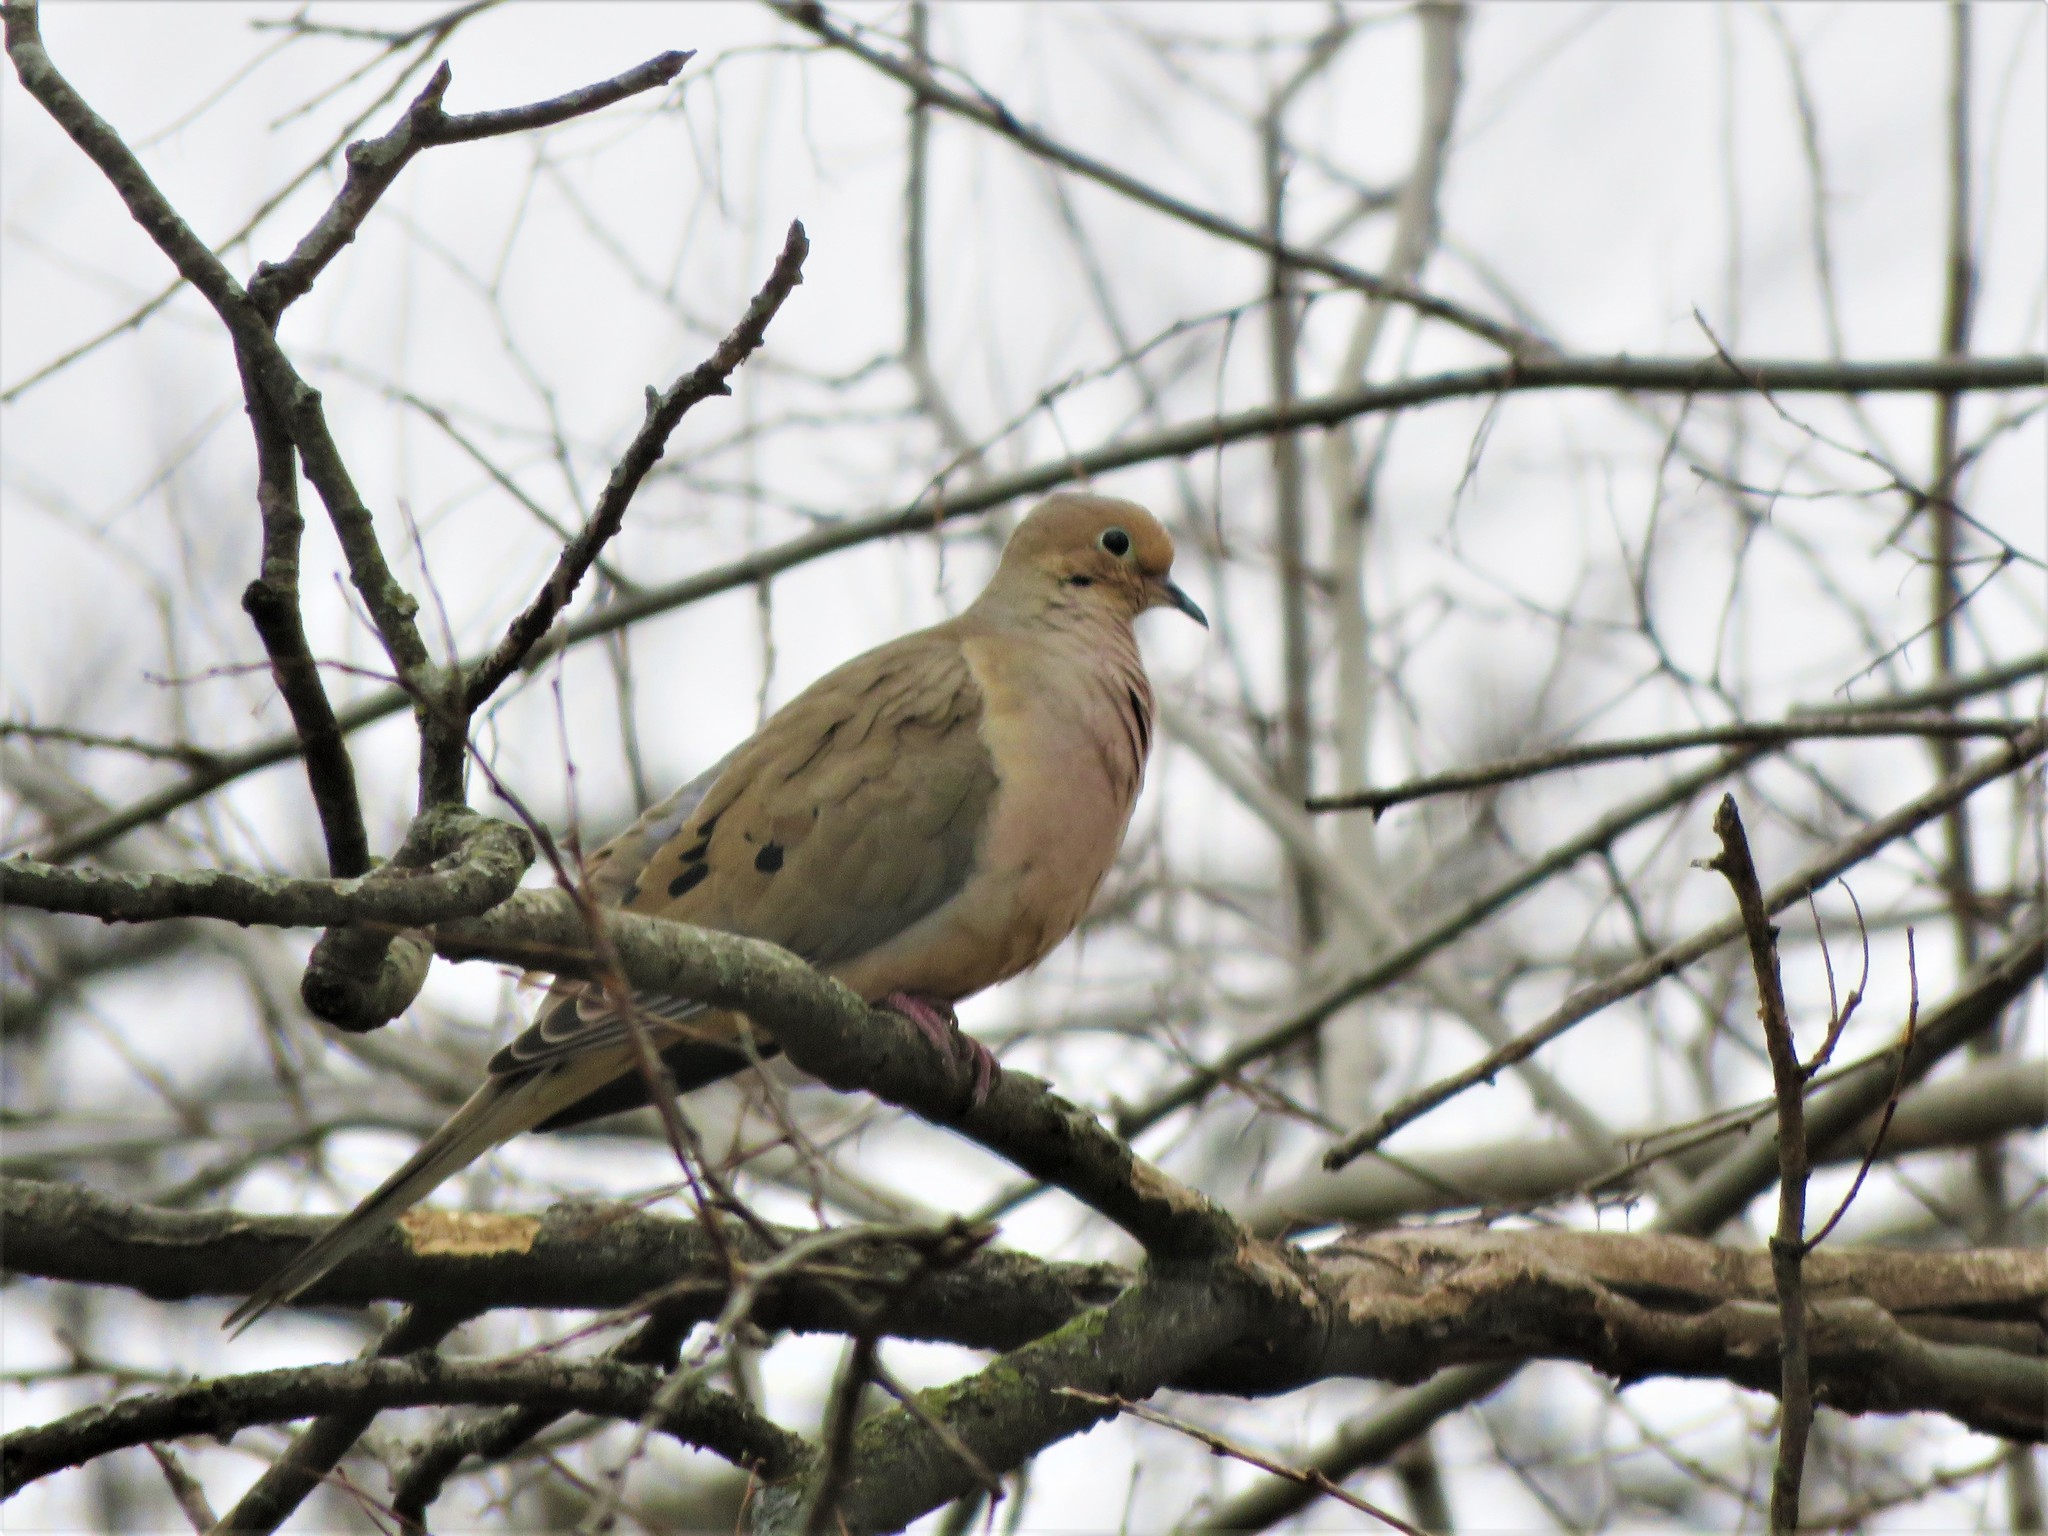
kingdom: Animalia
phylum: Chordata
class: Aves
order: Columbiformes
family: Columbidae
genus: Zenaida
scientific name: Zenaida macroura
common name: Mourning dove
